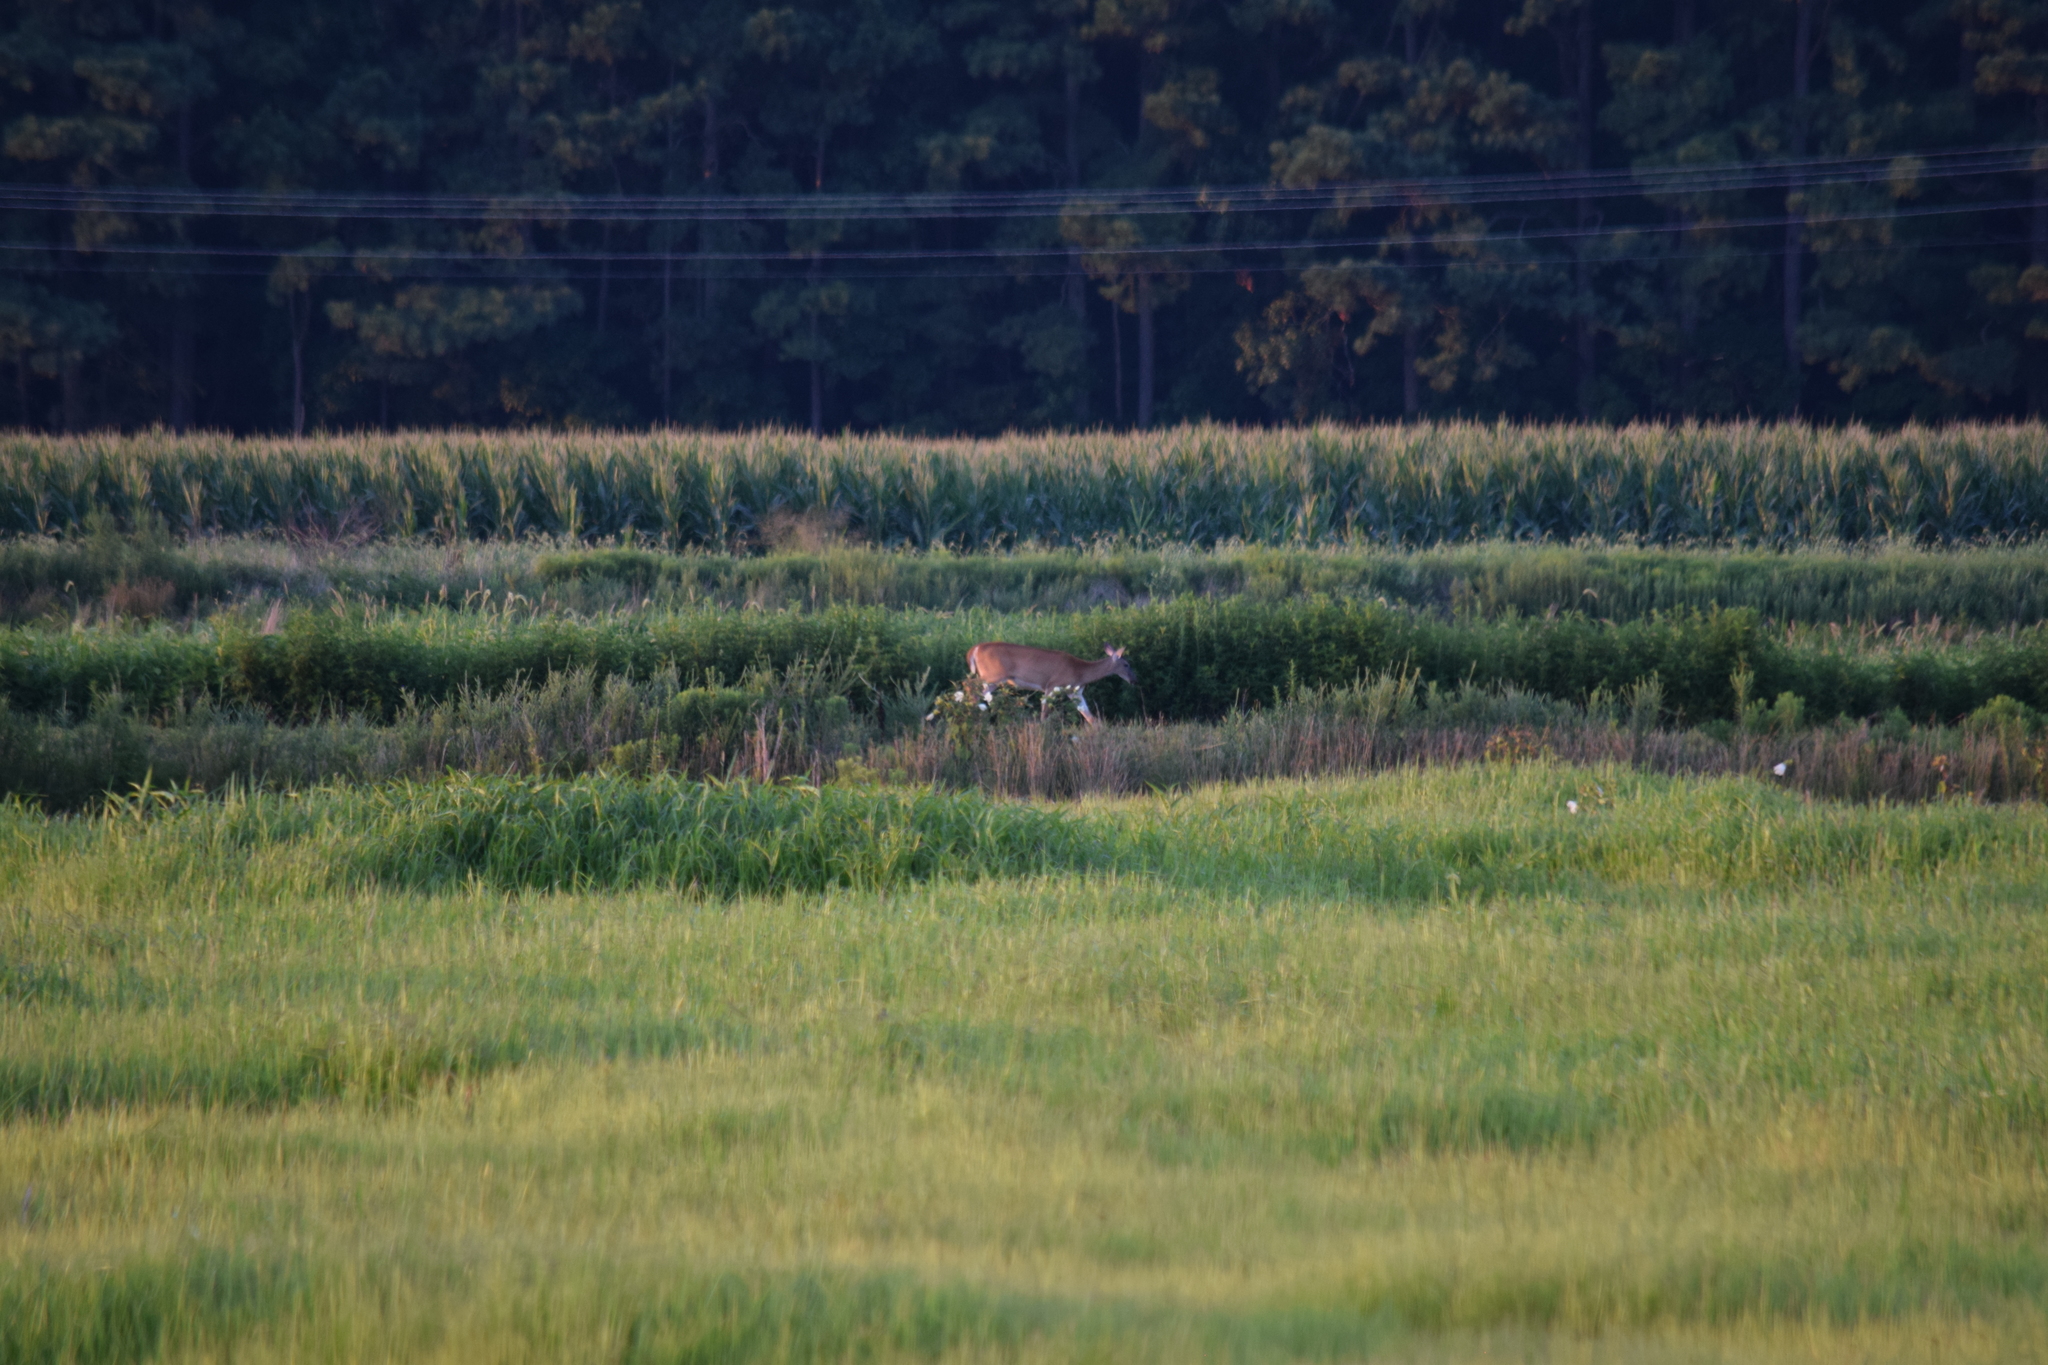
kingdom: Animalia
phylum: Chordata
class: Mammalia
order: Artiodactyla
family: Cervidae
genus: Odocoileus
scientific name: Odocoileus virginianus
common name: White-tailed deer
